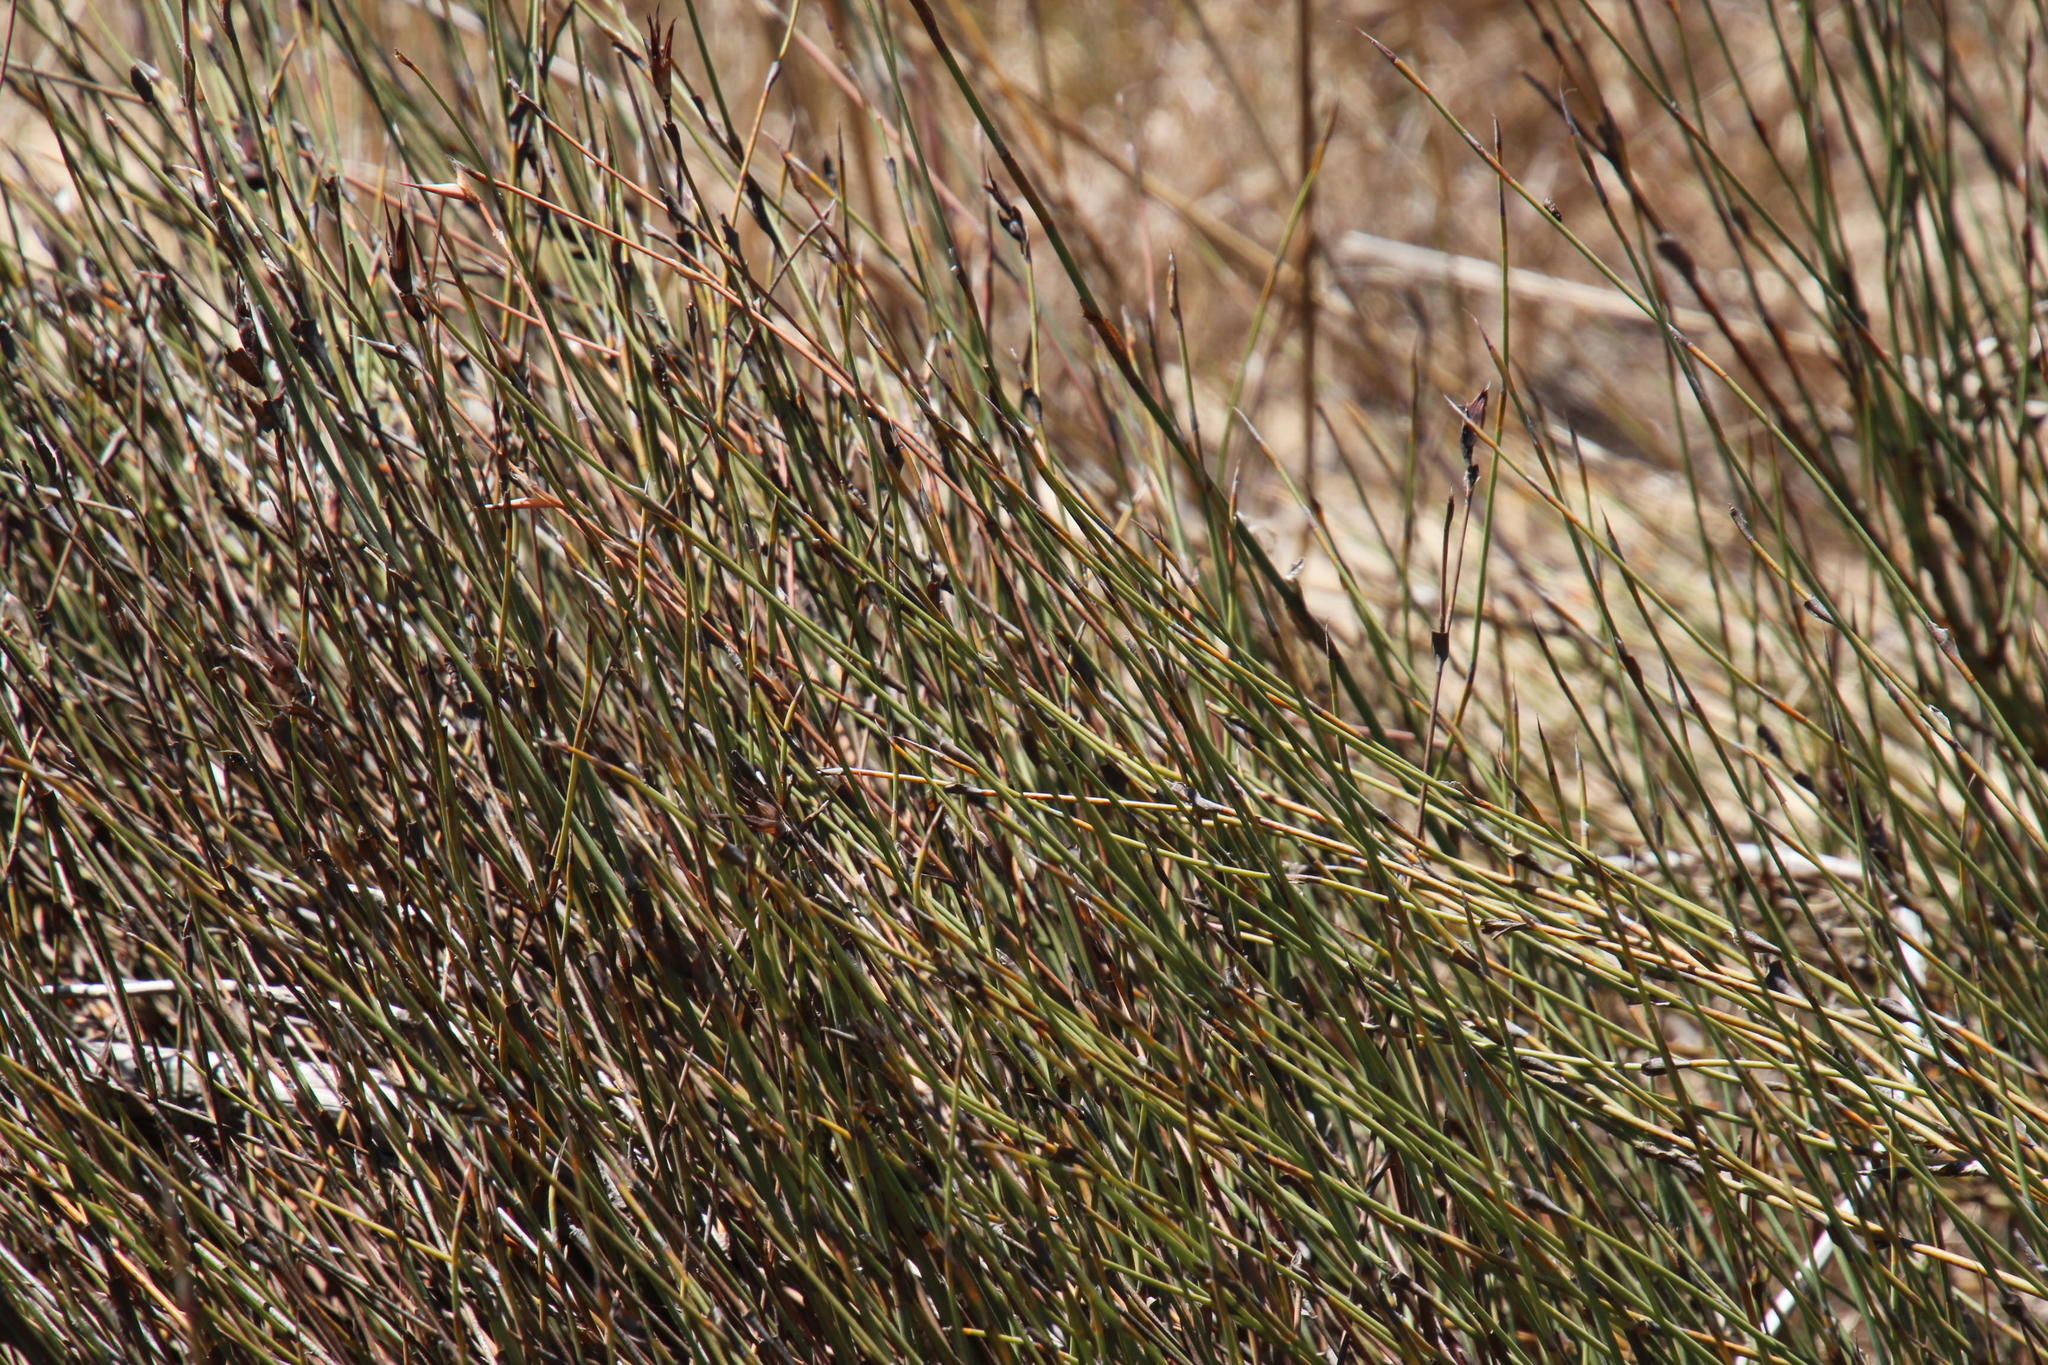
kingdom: Plantae
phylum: Tracheophyta
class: Liliopsida
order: Poales
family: Restionaceae
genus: Willdenowia
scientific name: Willdenowia incurvata
